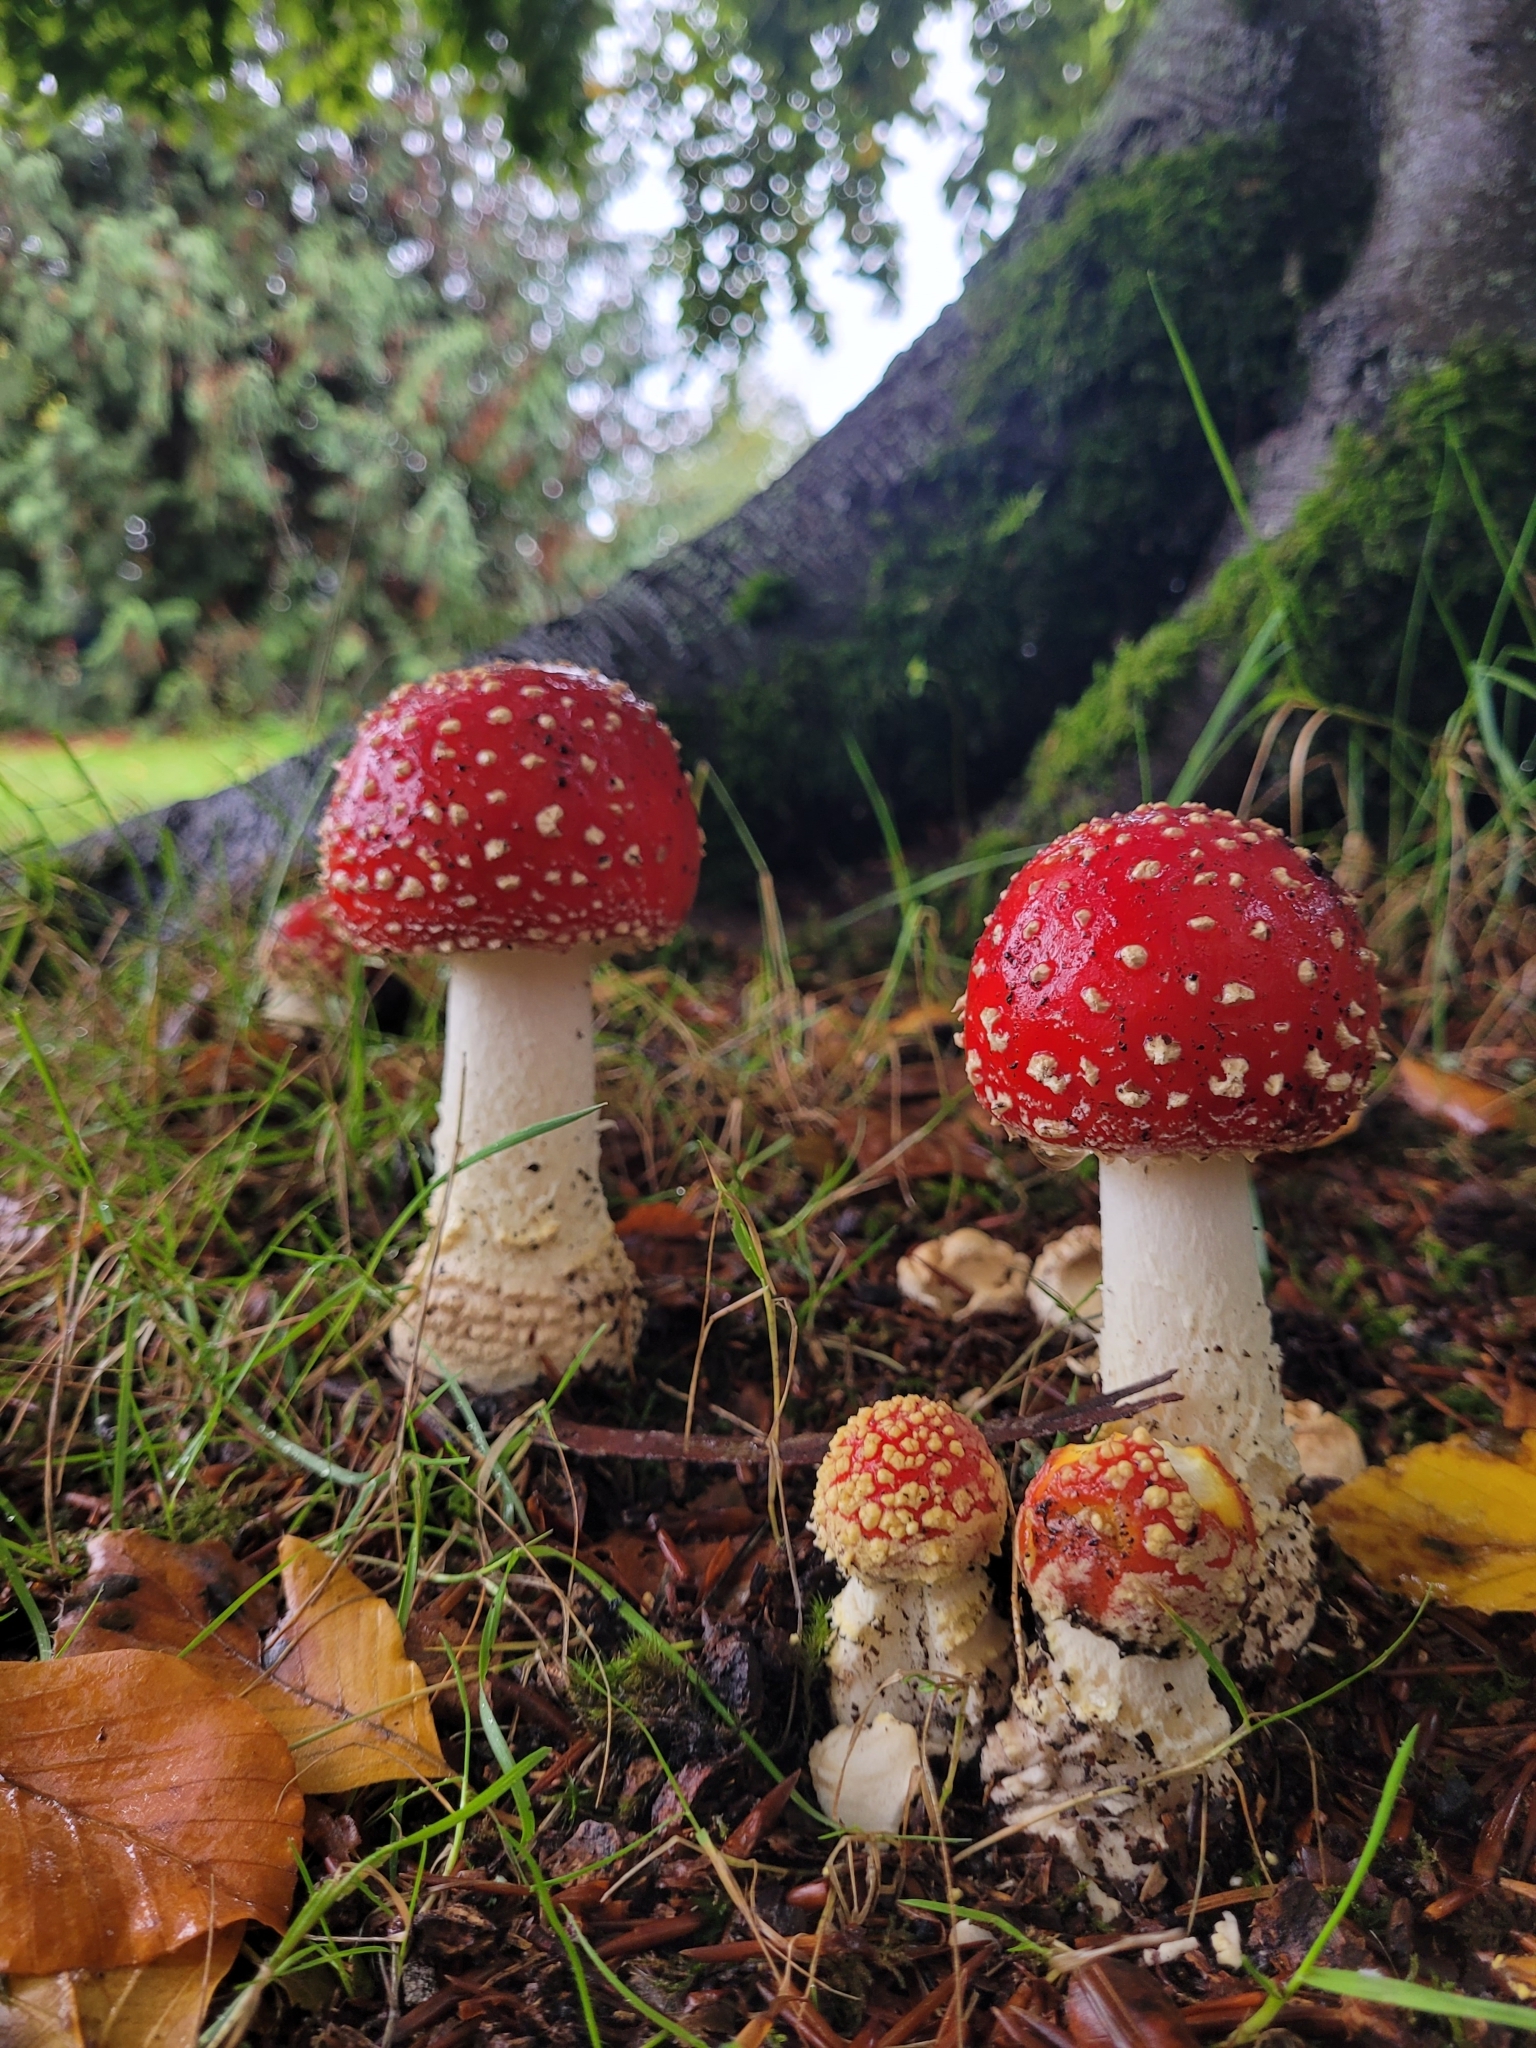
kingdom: Fungi
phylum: Basidiomycota
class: Agaricomycetes
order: Agaricales
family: Amanitaceae
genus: Amanita
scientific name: Amanita muscaria
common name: Fly agaric
